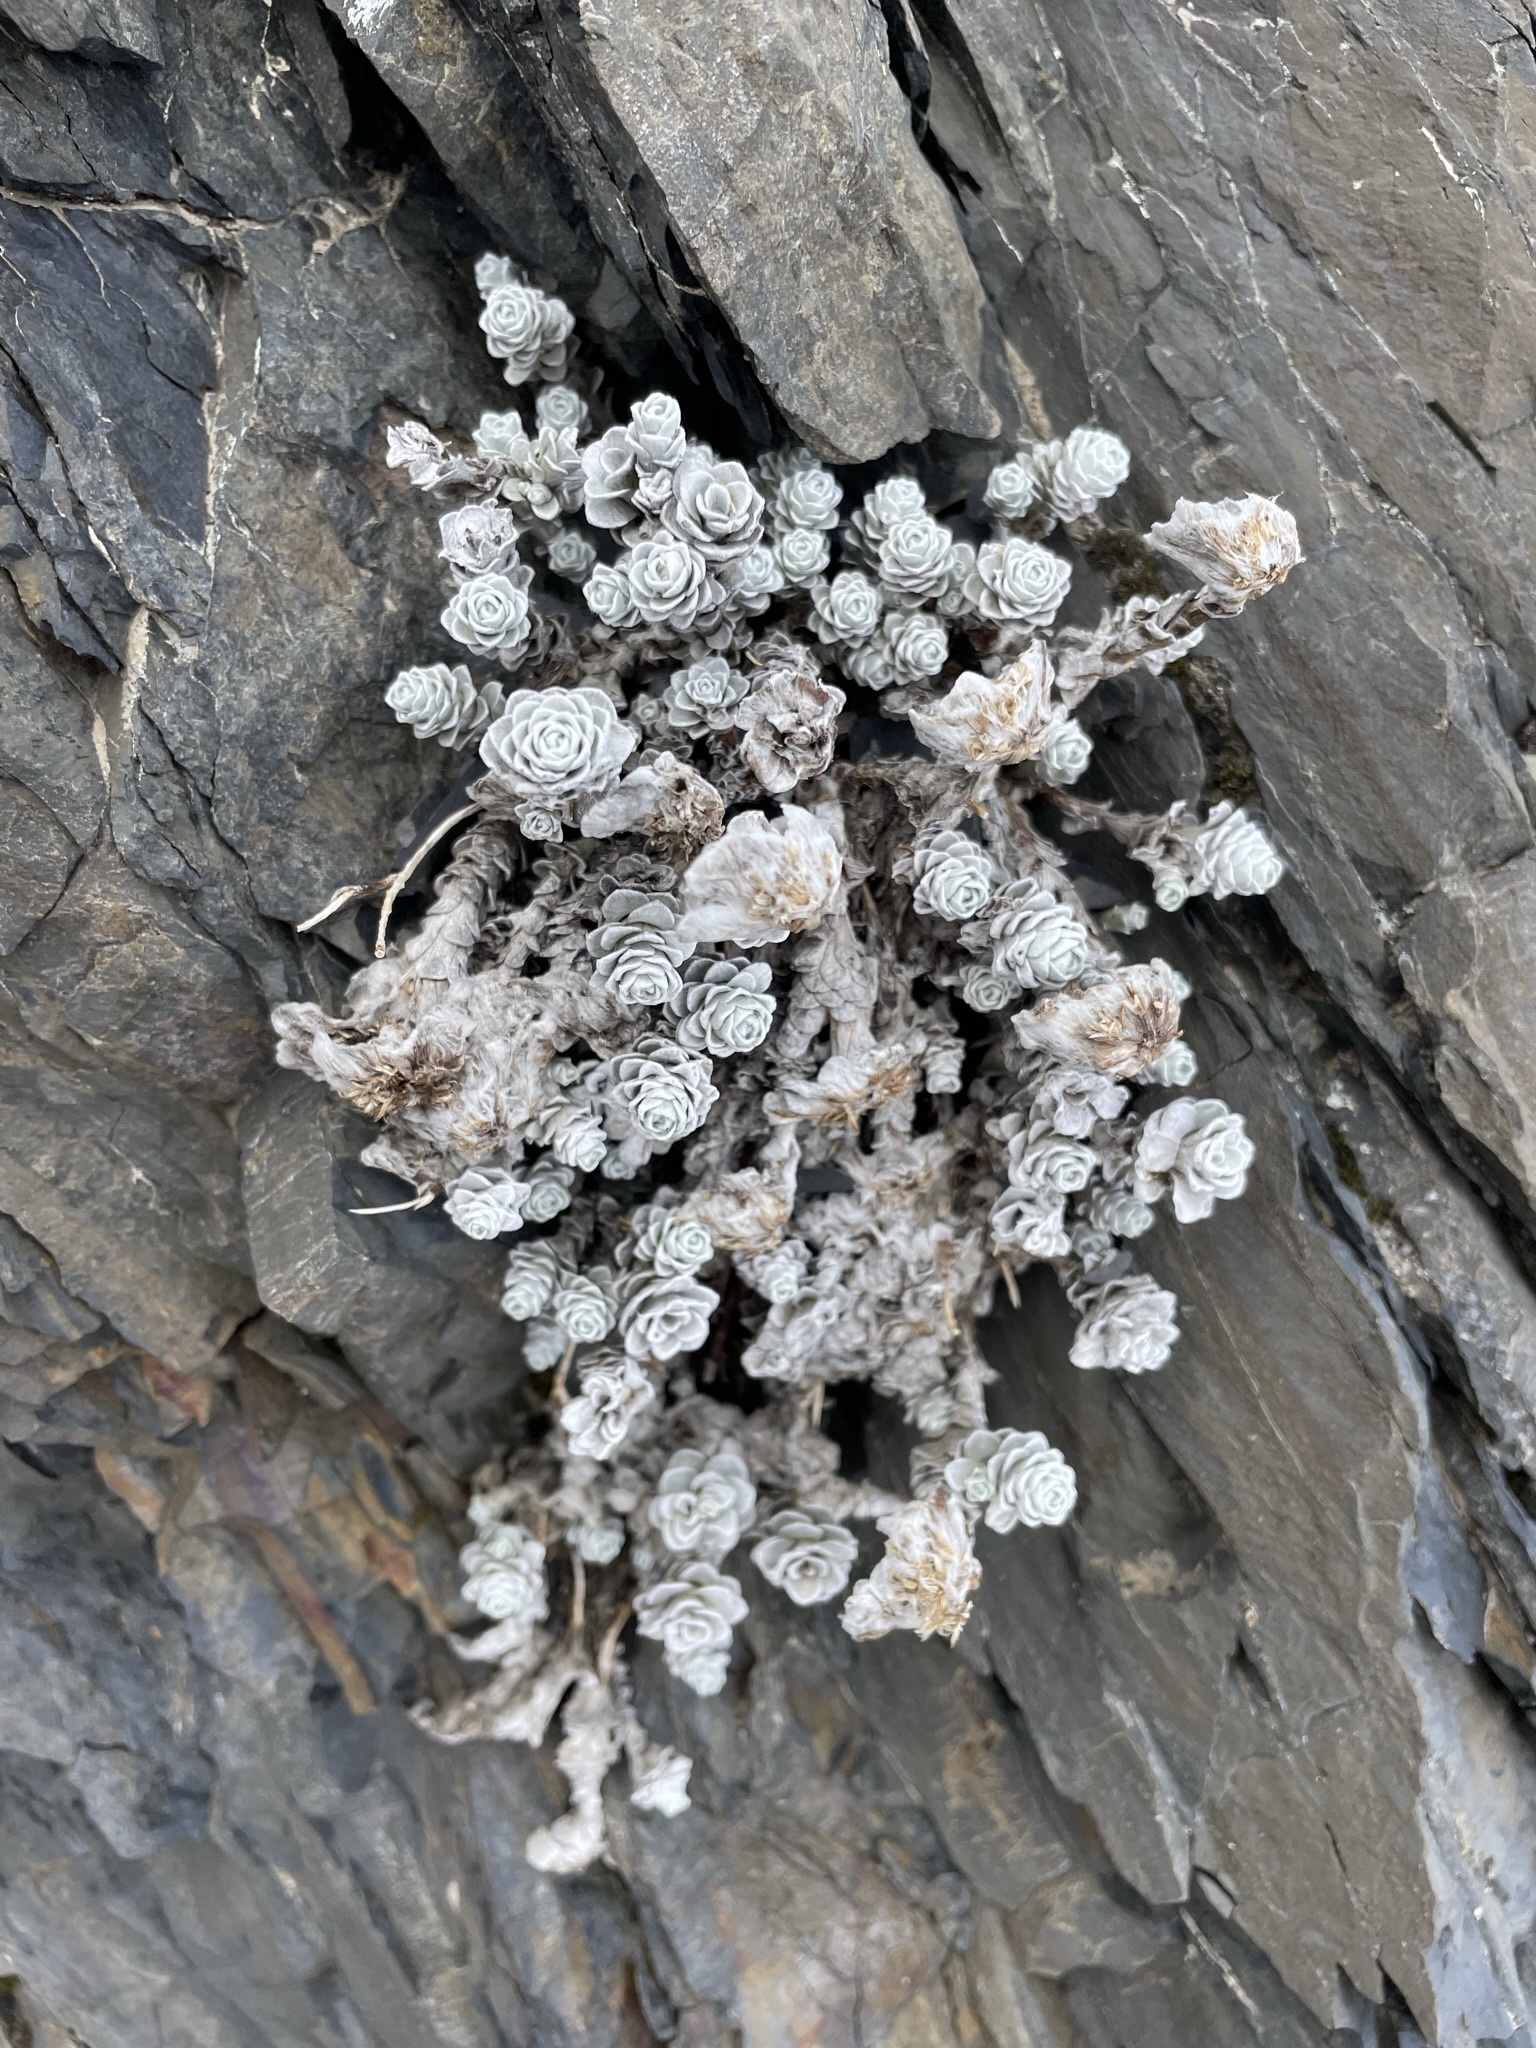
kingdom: Plantae
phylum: Tracheophyta
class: Magnoliopsida
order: Asterales
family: Asteraceae
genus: Leucogenes
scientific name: Leucogenes grandiceps
